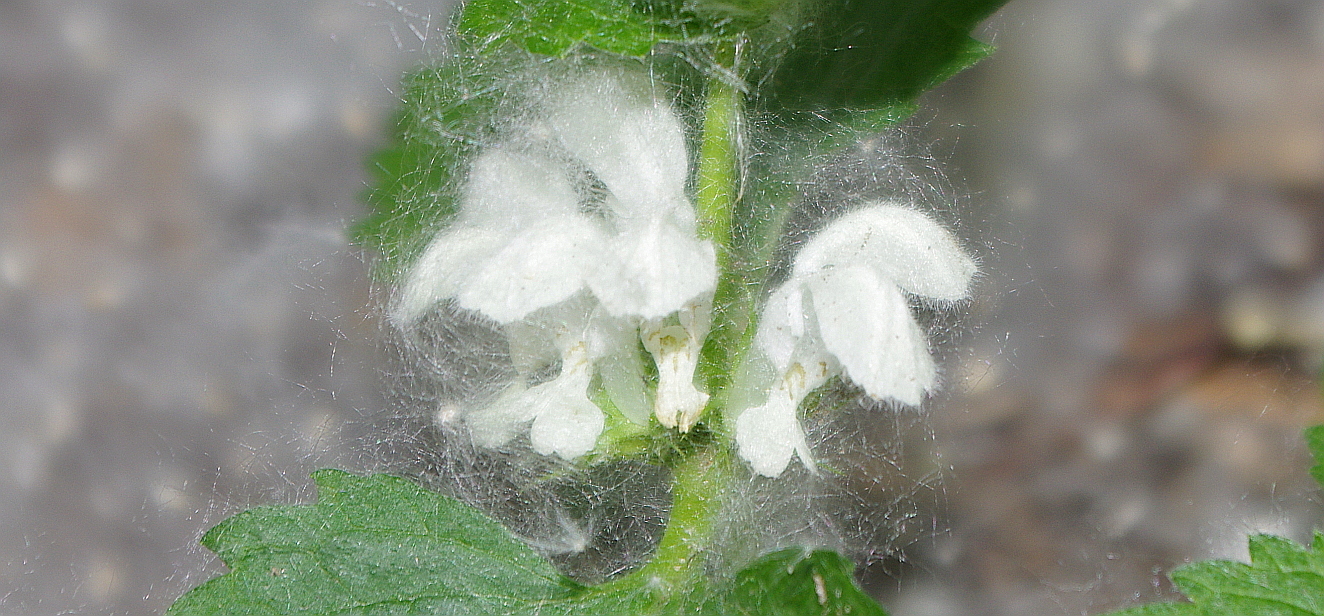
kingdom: Plantae
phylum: Tracheophyta
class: Magnoliopsida
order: Lamiales
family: Lamiaceae
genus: Lamium
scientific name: Lamium album
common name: White dead-nettle
